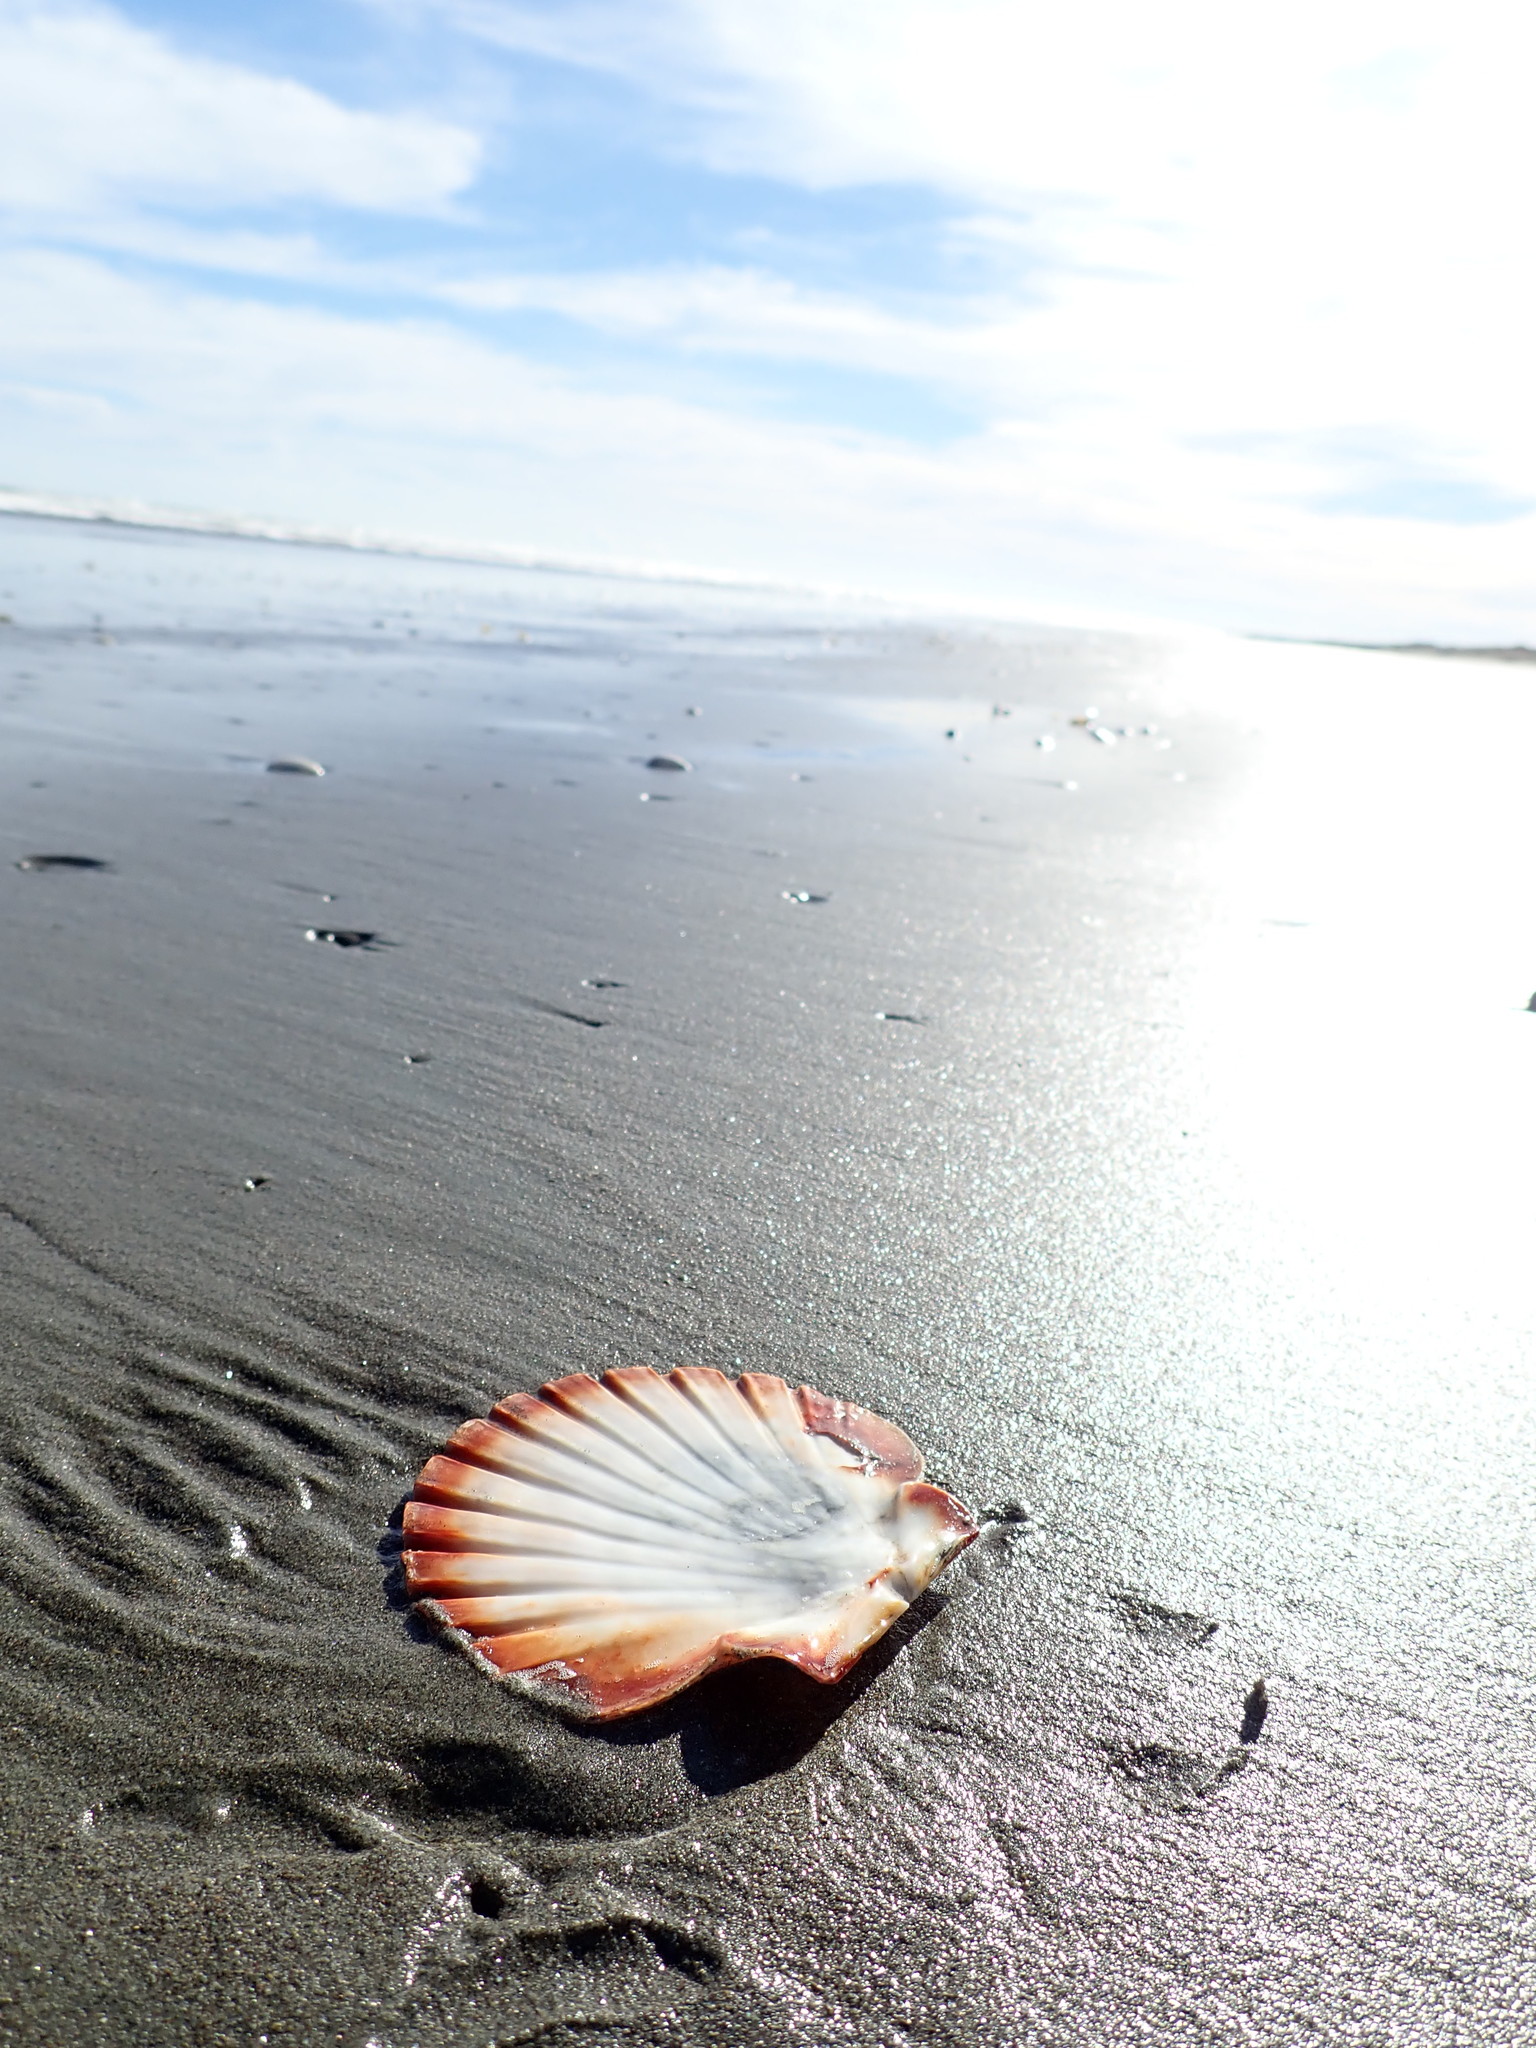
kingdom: Animalia
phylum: Mollusca
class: Bivalvia
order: Pectinida
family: Pectinidae
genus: Pecten
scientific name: Pecten novaezelandiae
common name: New zealand scallop
